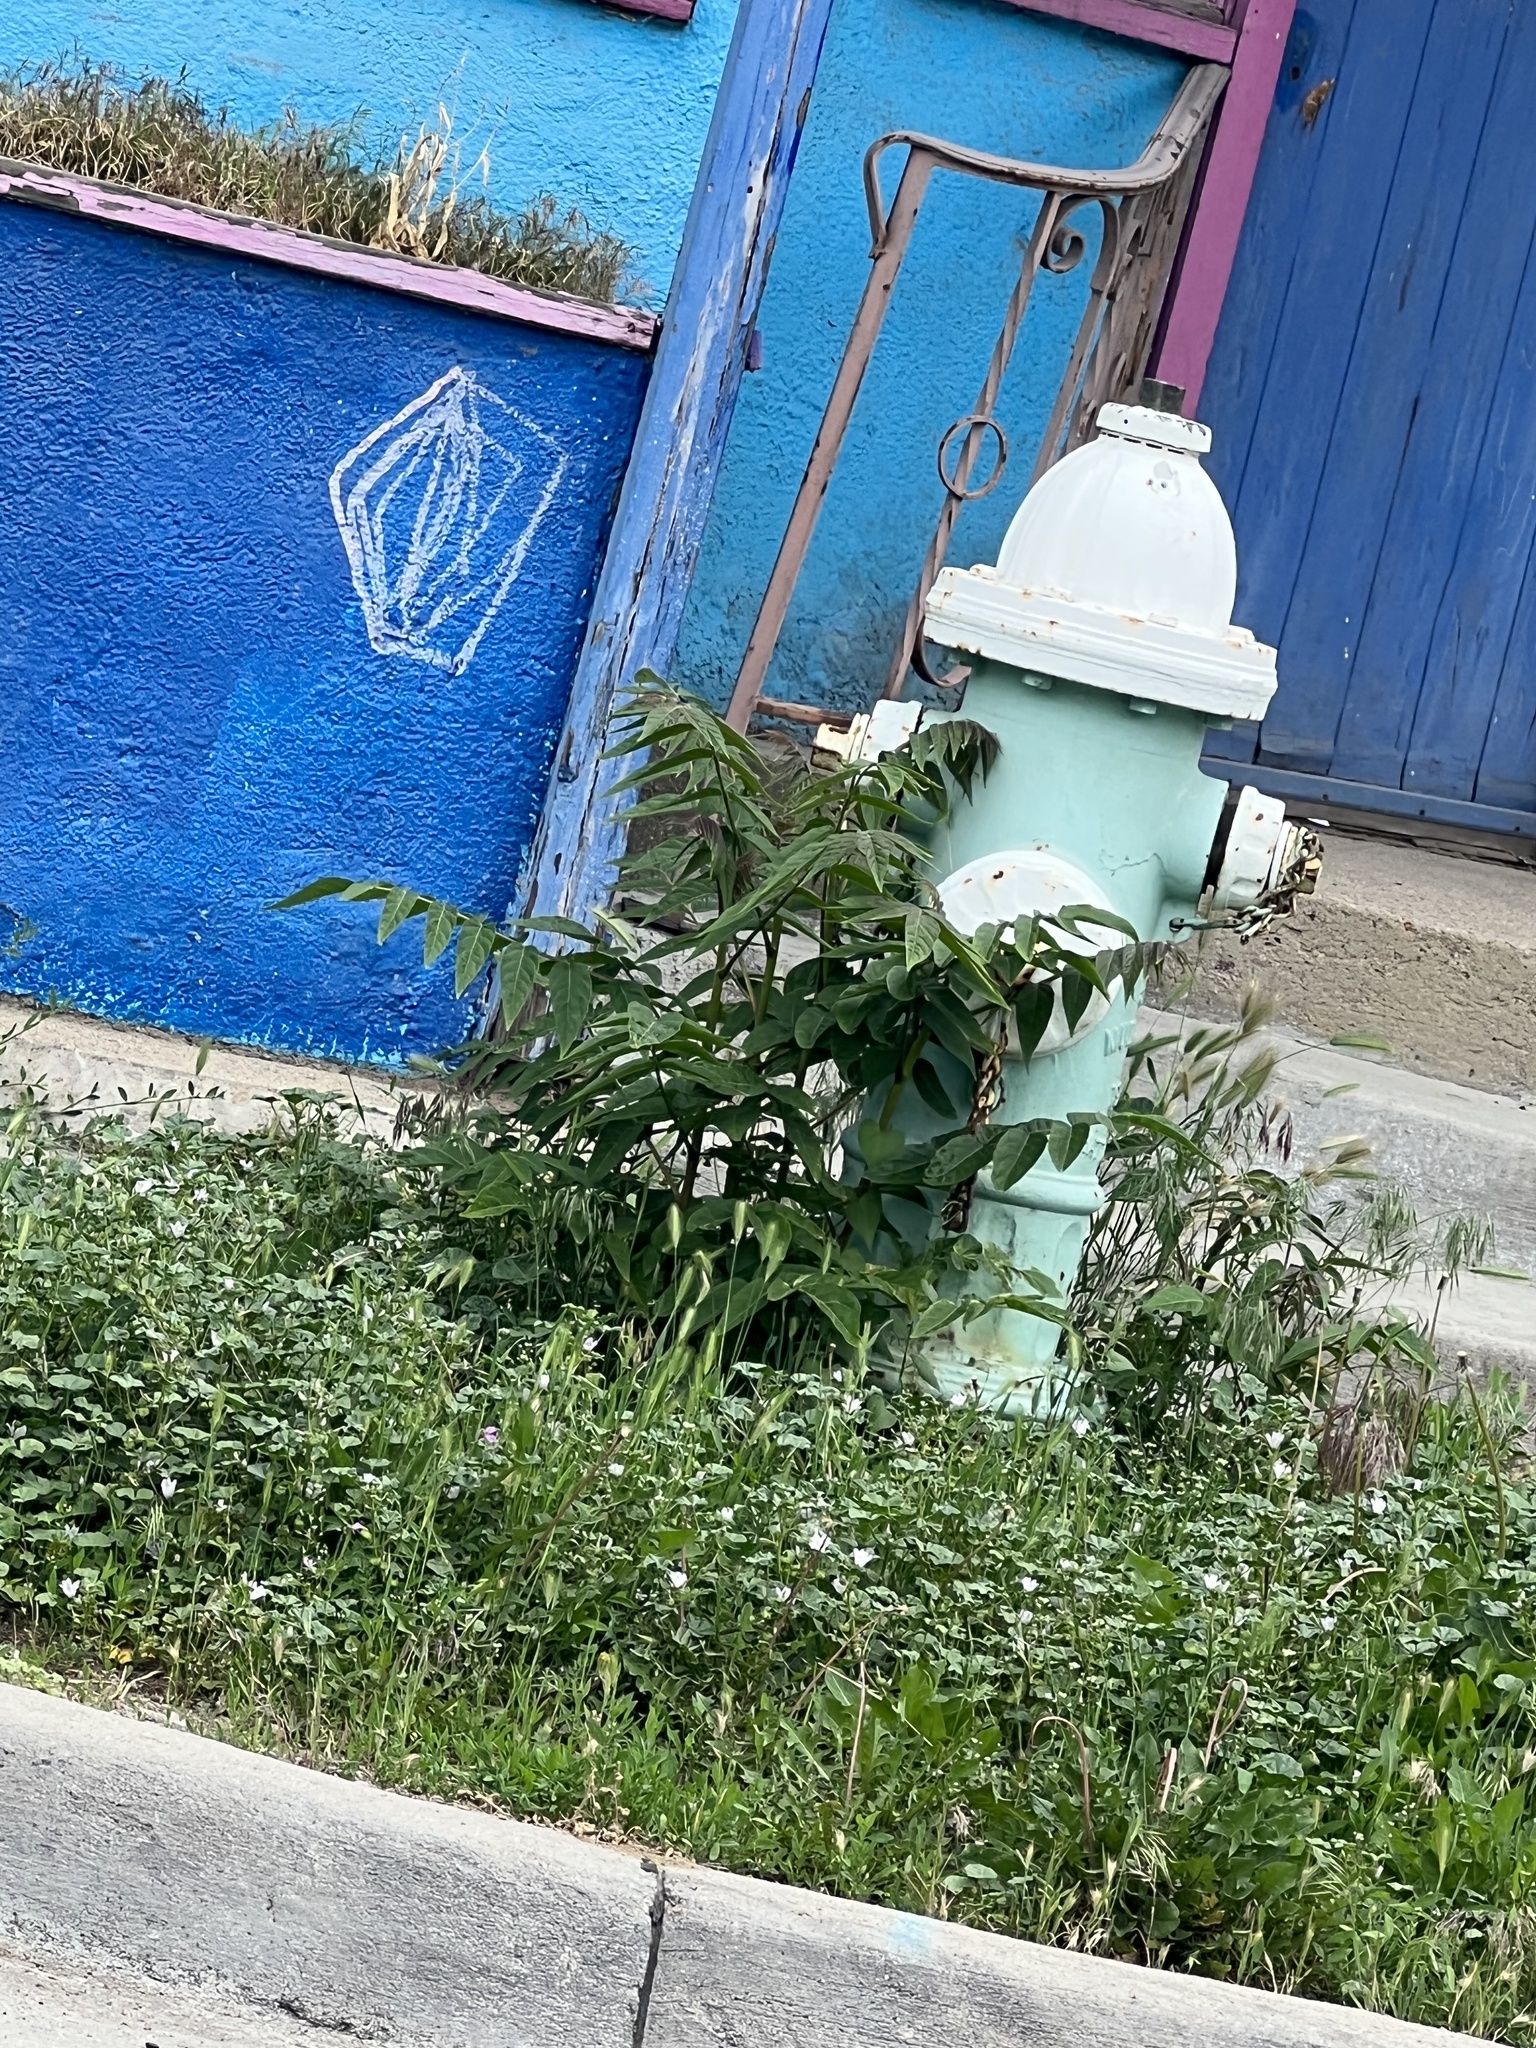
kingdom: Plantae
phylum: Tracheophyta
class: Magnoliopsida
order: Sapindales
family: Simaroubaceae
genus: Ailanthus
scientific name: Ailanthus altissima
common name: Tree-of-heaven
